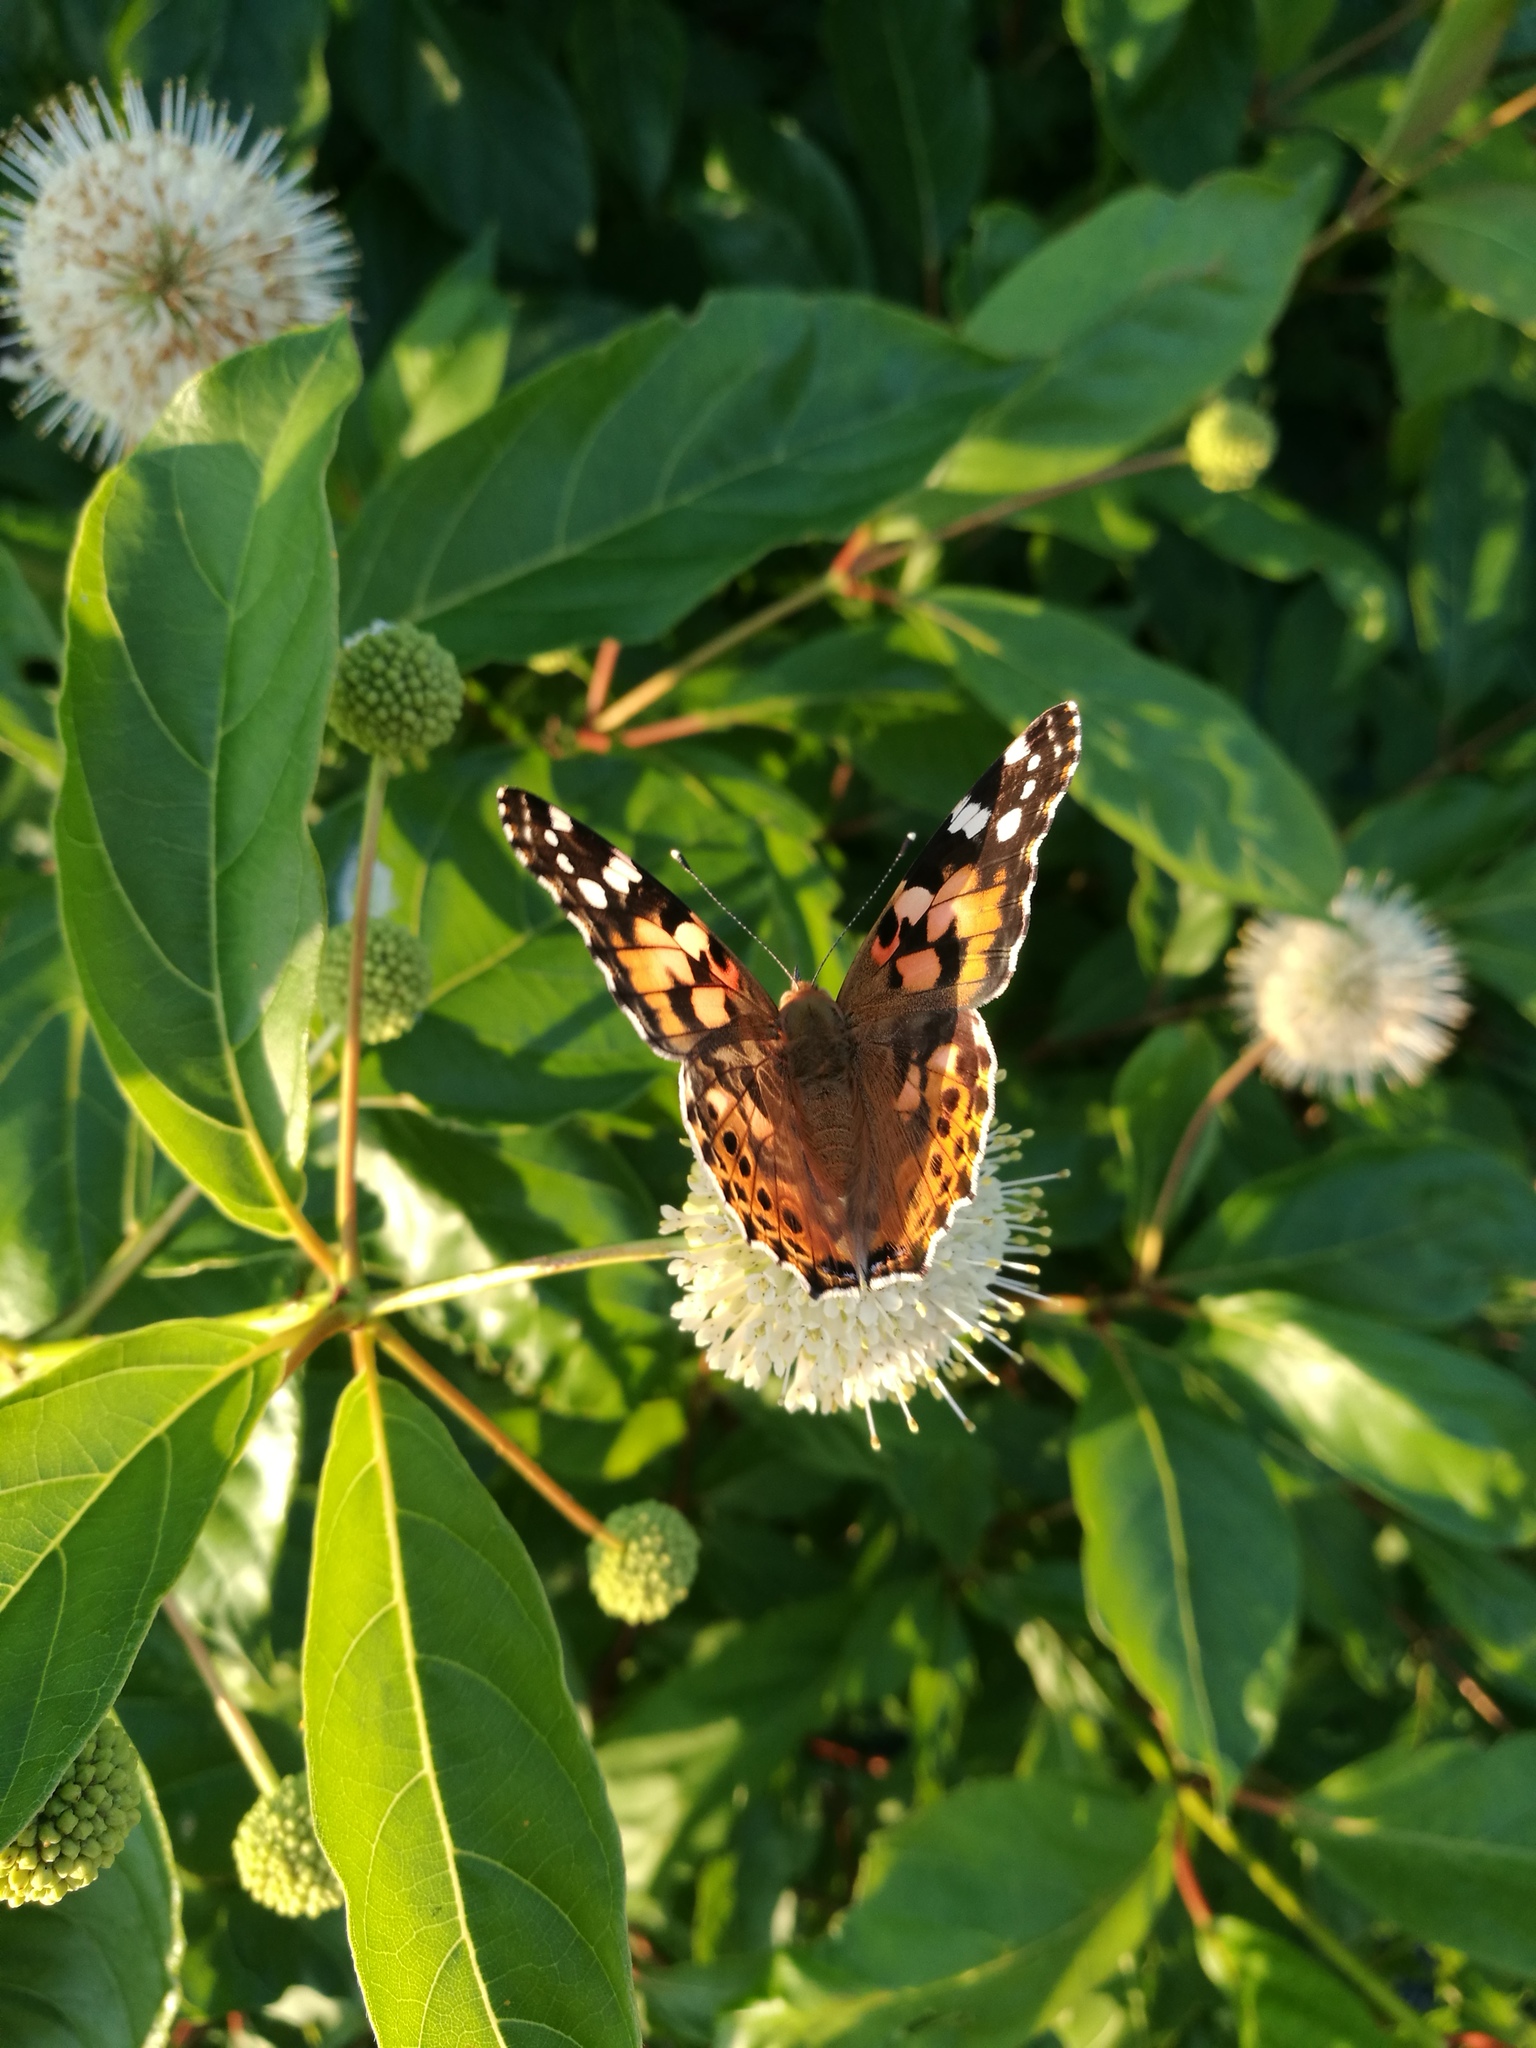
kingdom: Animalia
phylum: Arthropoda
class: Insecta
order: Lepidoptera
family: Nymphalidae
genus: Vanessa
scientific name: Vanessa cardui
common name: Painted lady
